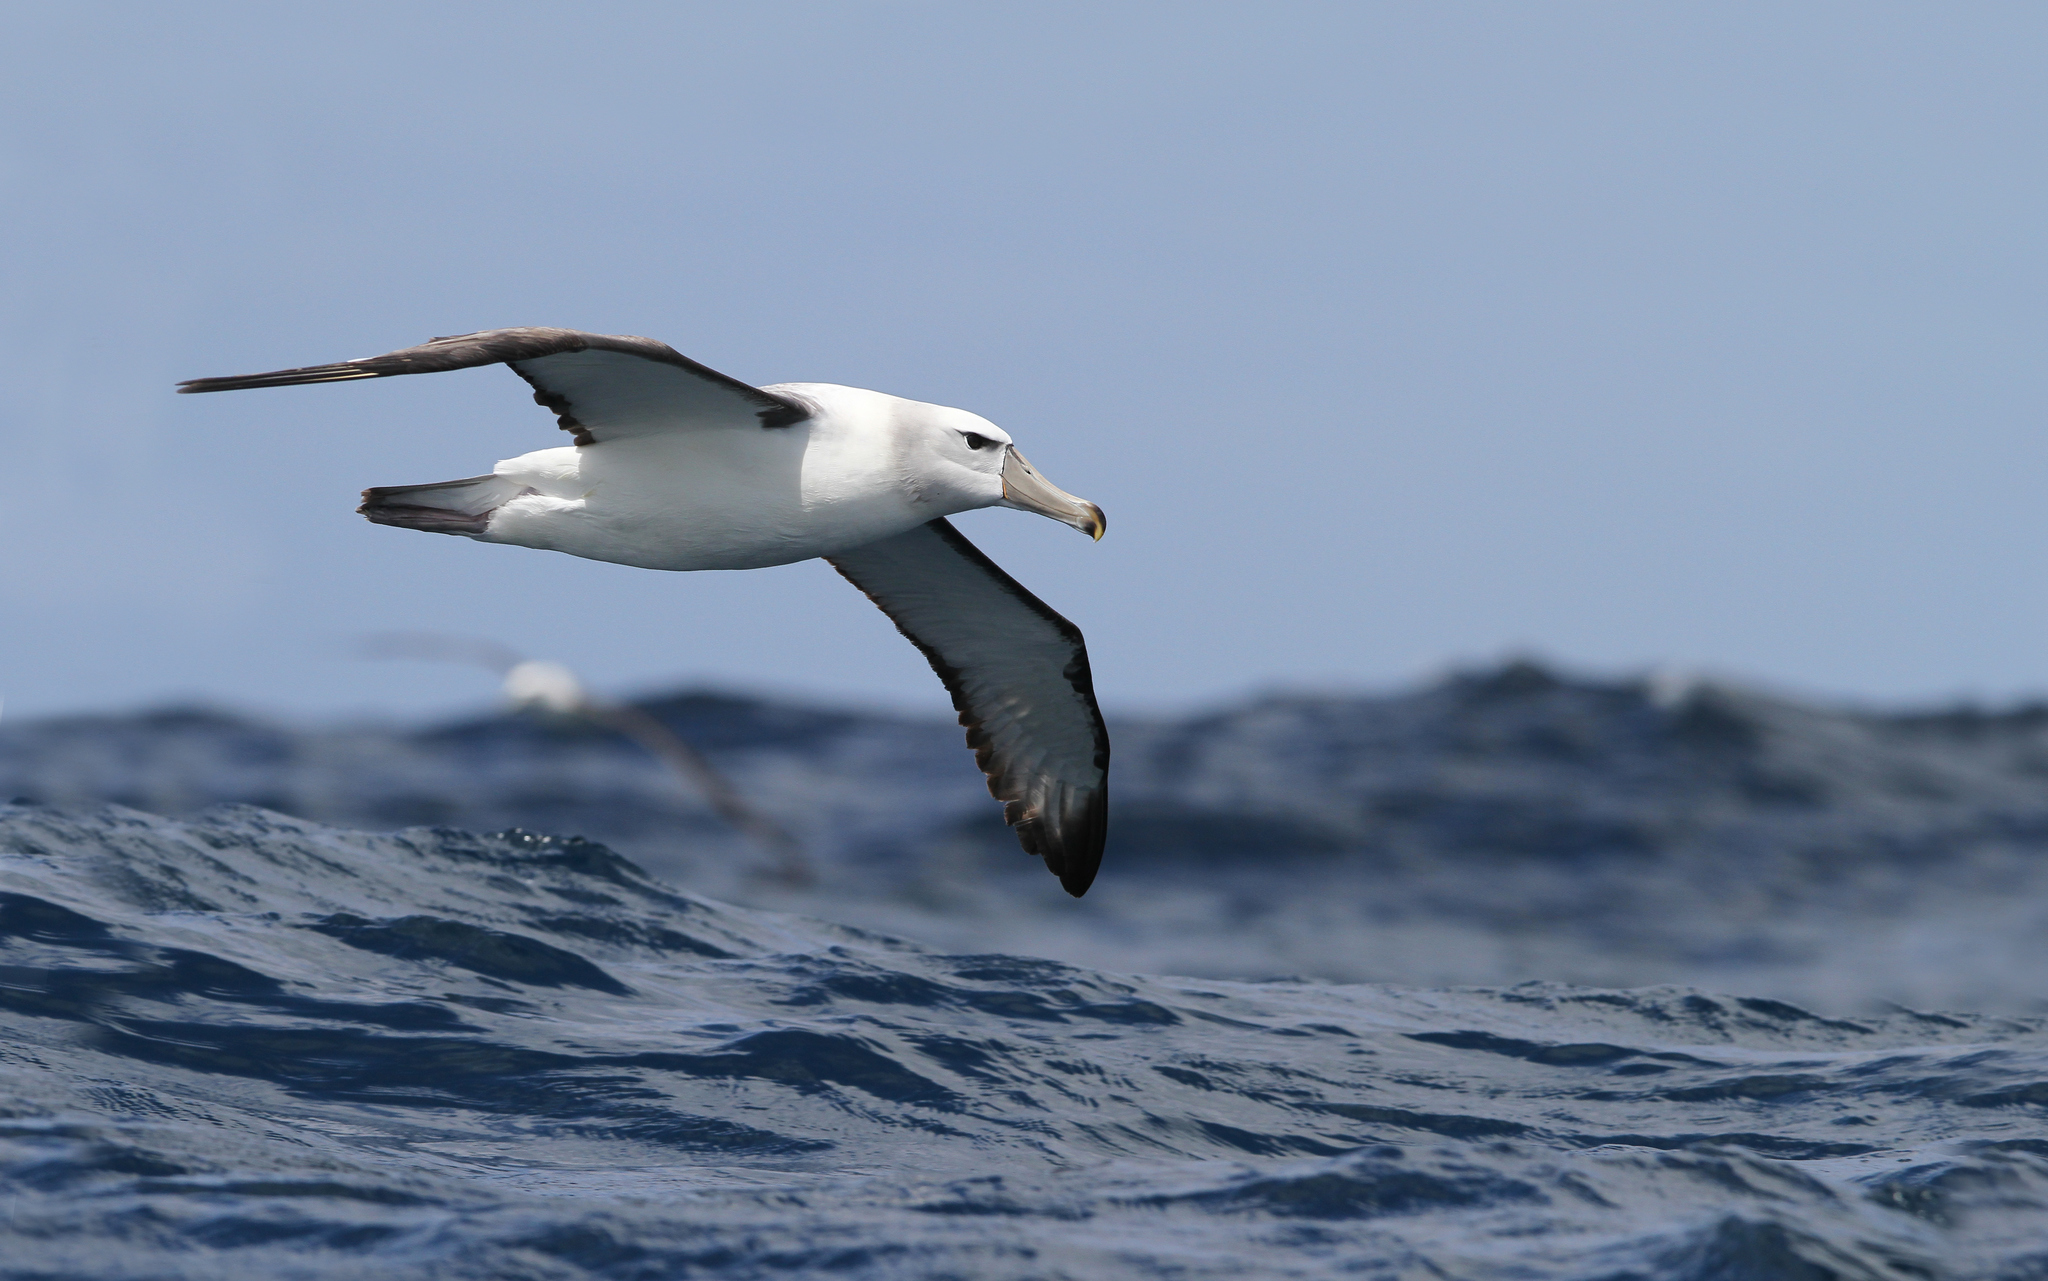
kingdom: Animalia
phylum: Chordata
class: Aves
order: Procellariiformes
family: Diomedeidae
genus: Thalassarche
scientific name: Thalassarche cauta
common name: Shy albatross
